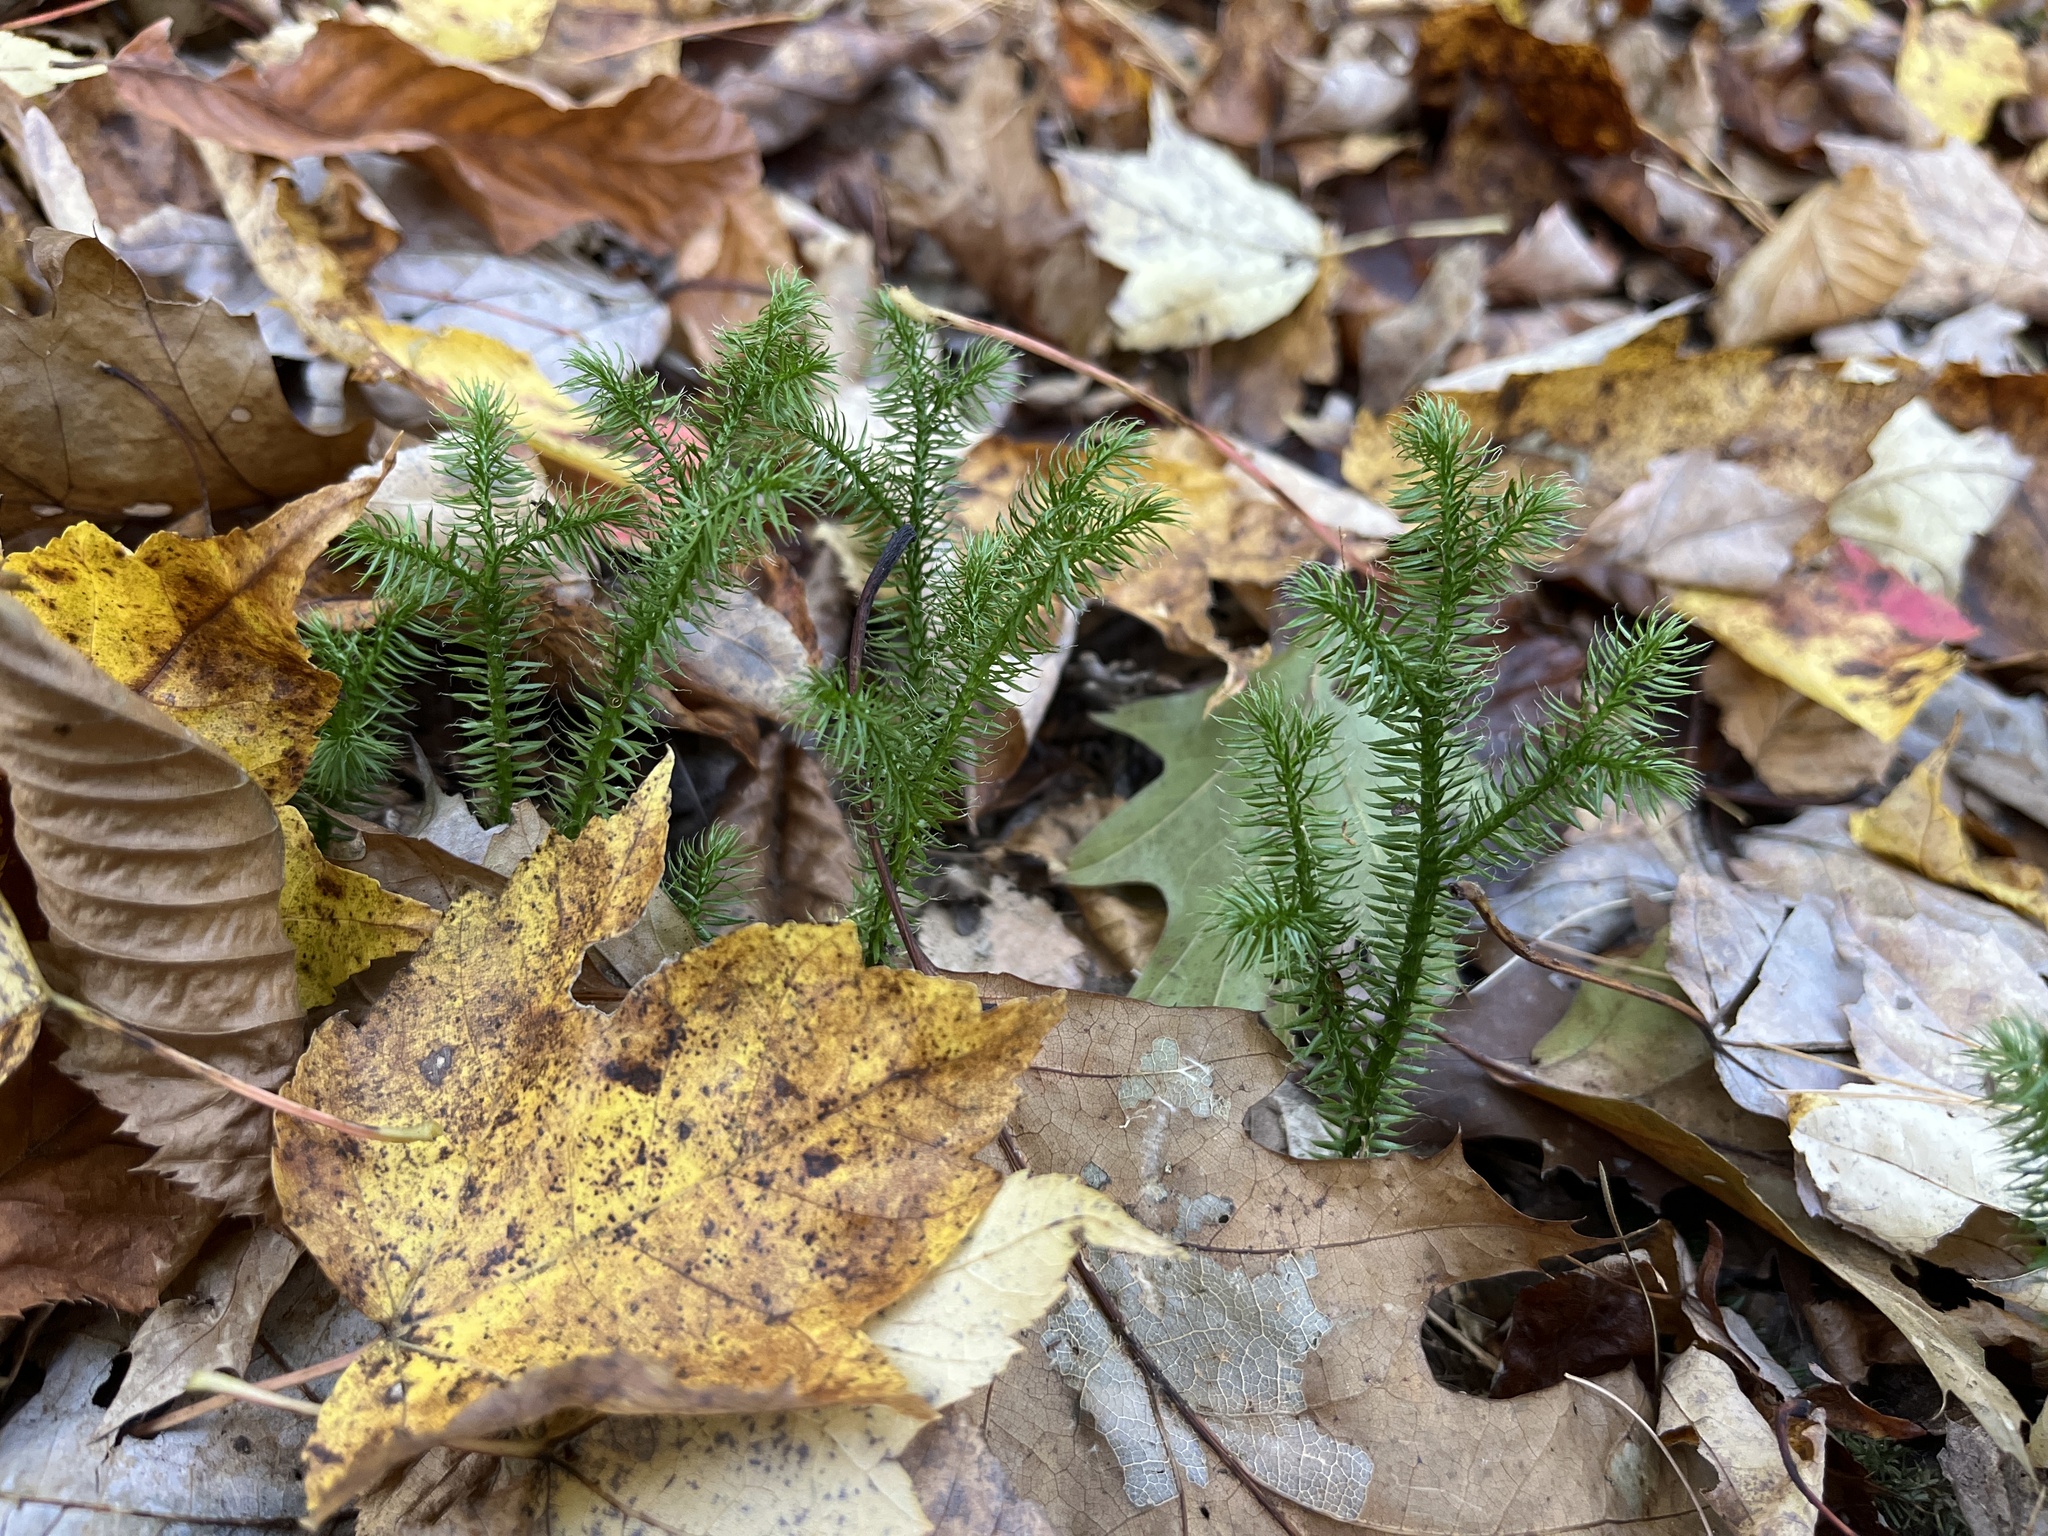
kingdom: Plantae
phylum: Tracheophyta
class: Lycopodiopsida
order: Lycopodiales
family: Lycopodiaceae
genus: Lycopodium
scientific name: Lycopodium clavatum
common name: Stag's-horn clubmoss
